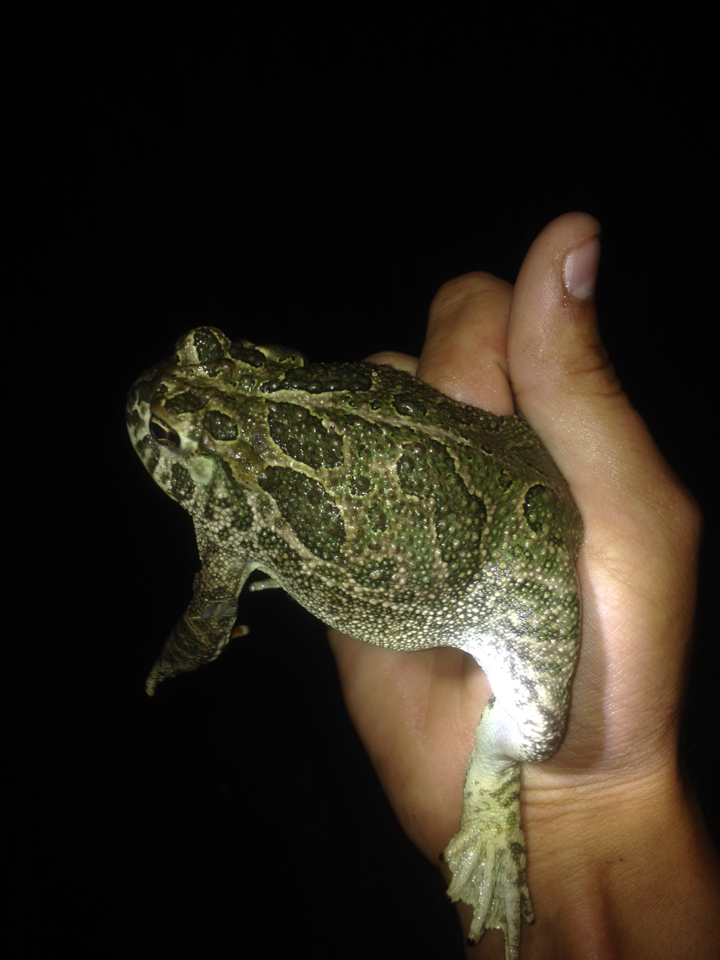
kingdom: Animalia
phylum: Chordata
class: Amphibia
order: Anura
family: Bufonidae
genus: Anaxyrus
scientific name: Anaxyrus cognatus
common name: Great plains toad
